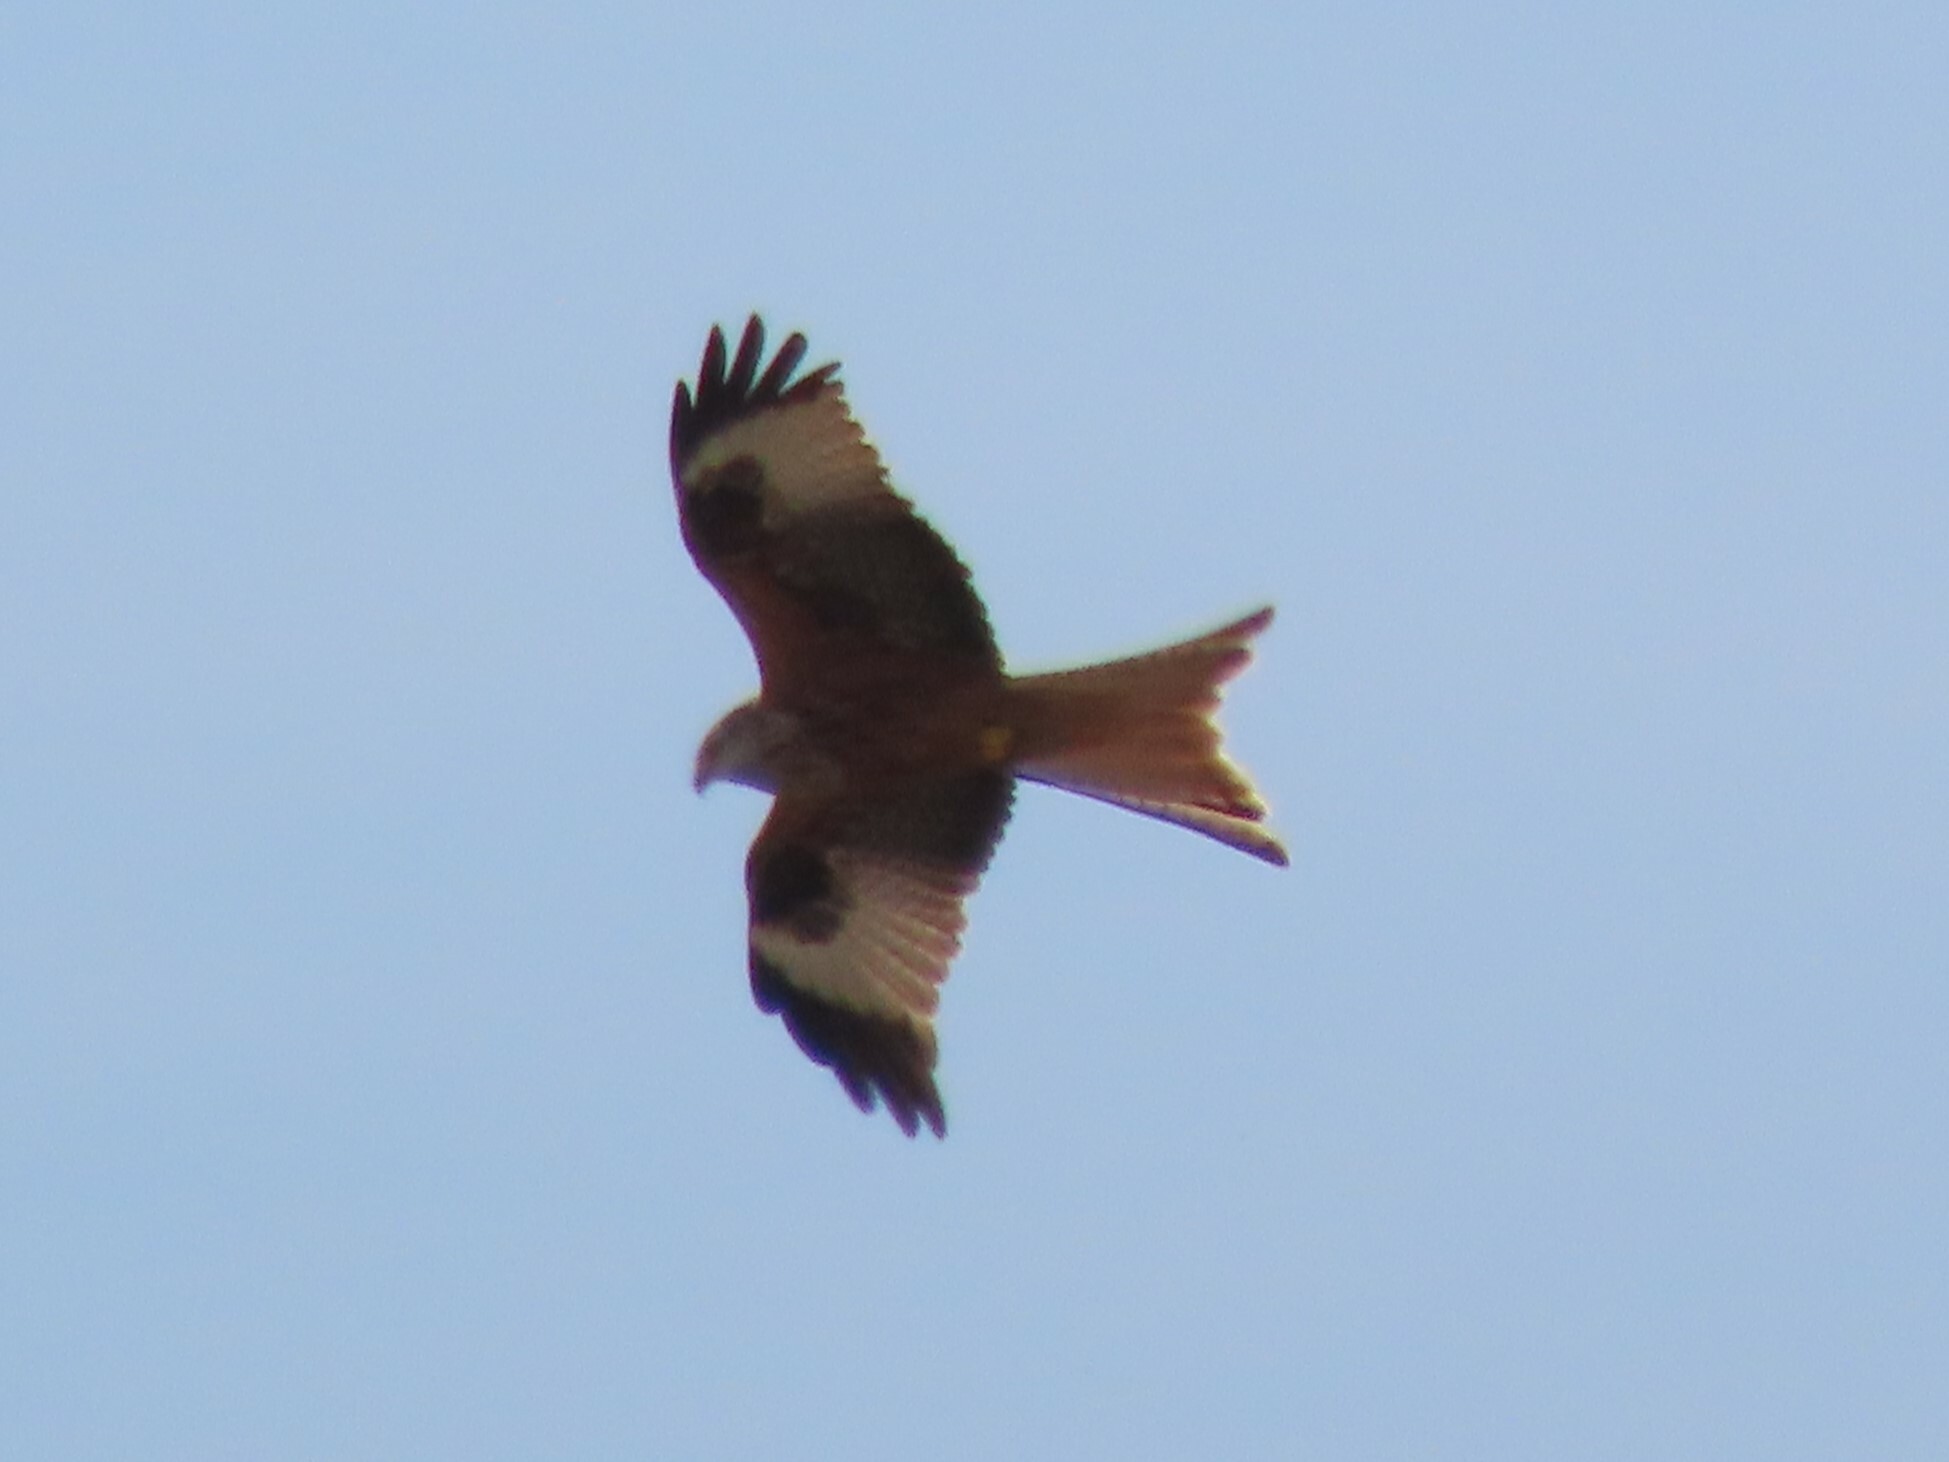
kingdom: Animalia
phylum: Chordata
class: Aves
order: Accipitriformes
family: Accipitridae
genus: Milvus
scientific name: Milvus milvus
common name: Red kite
